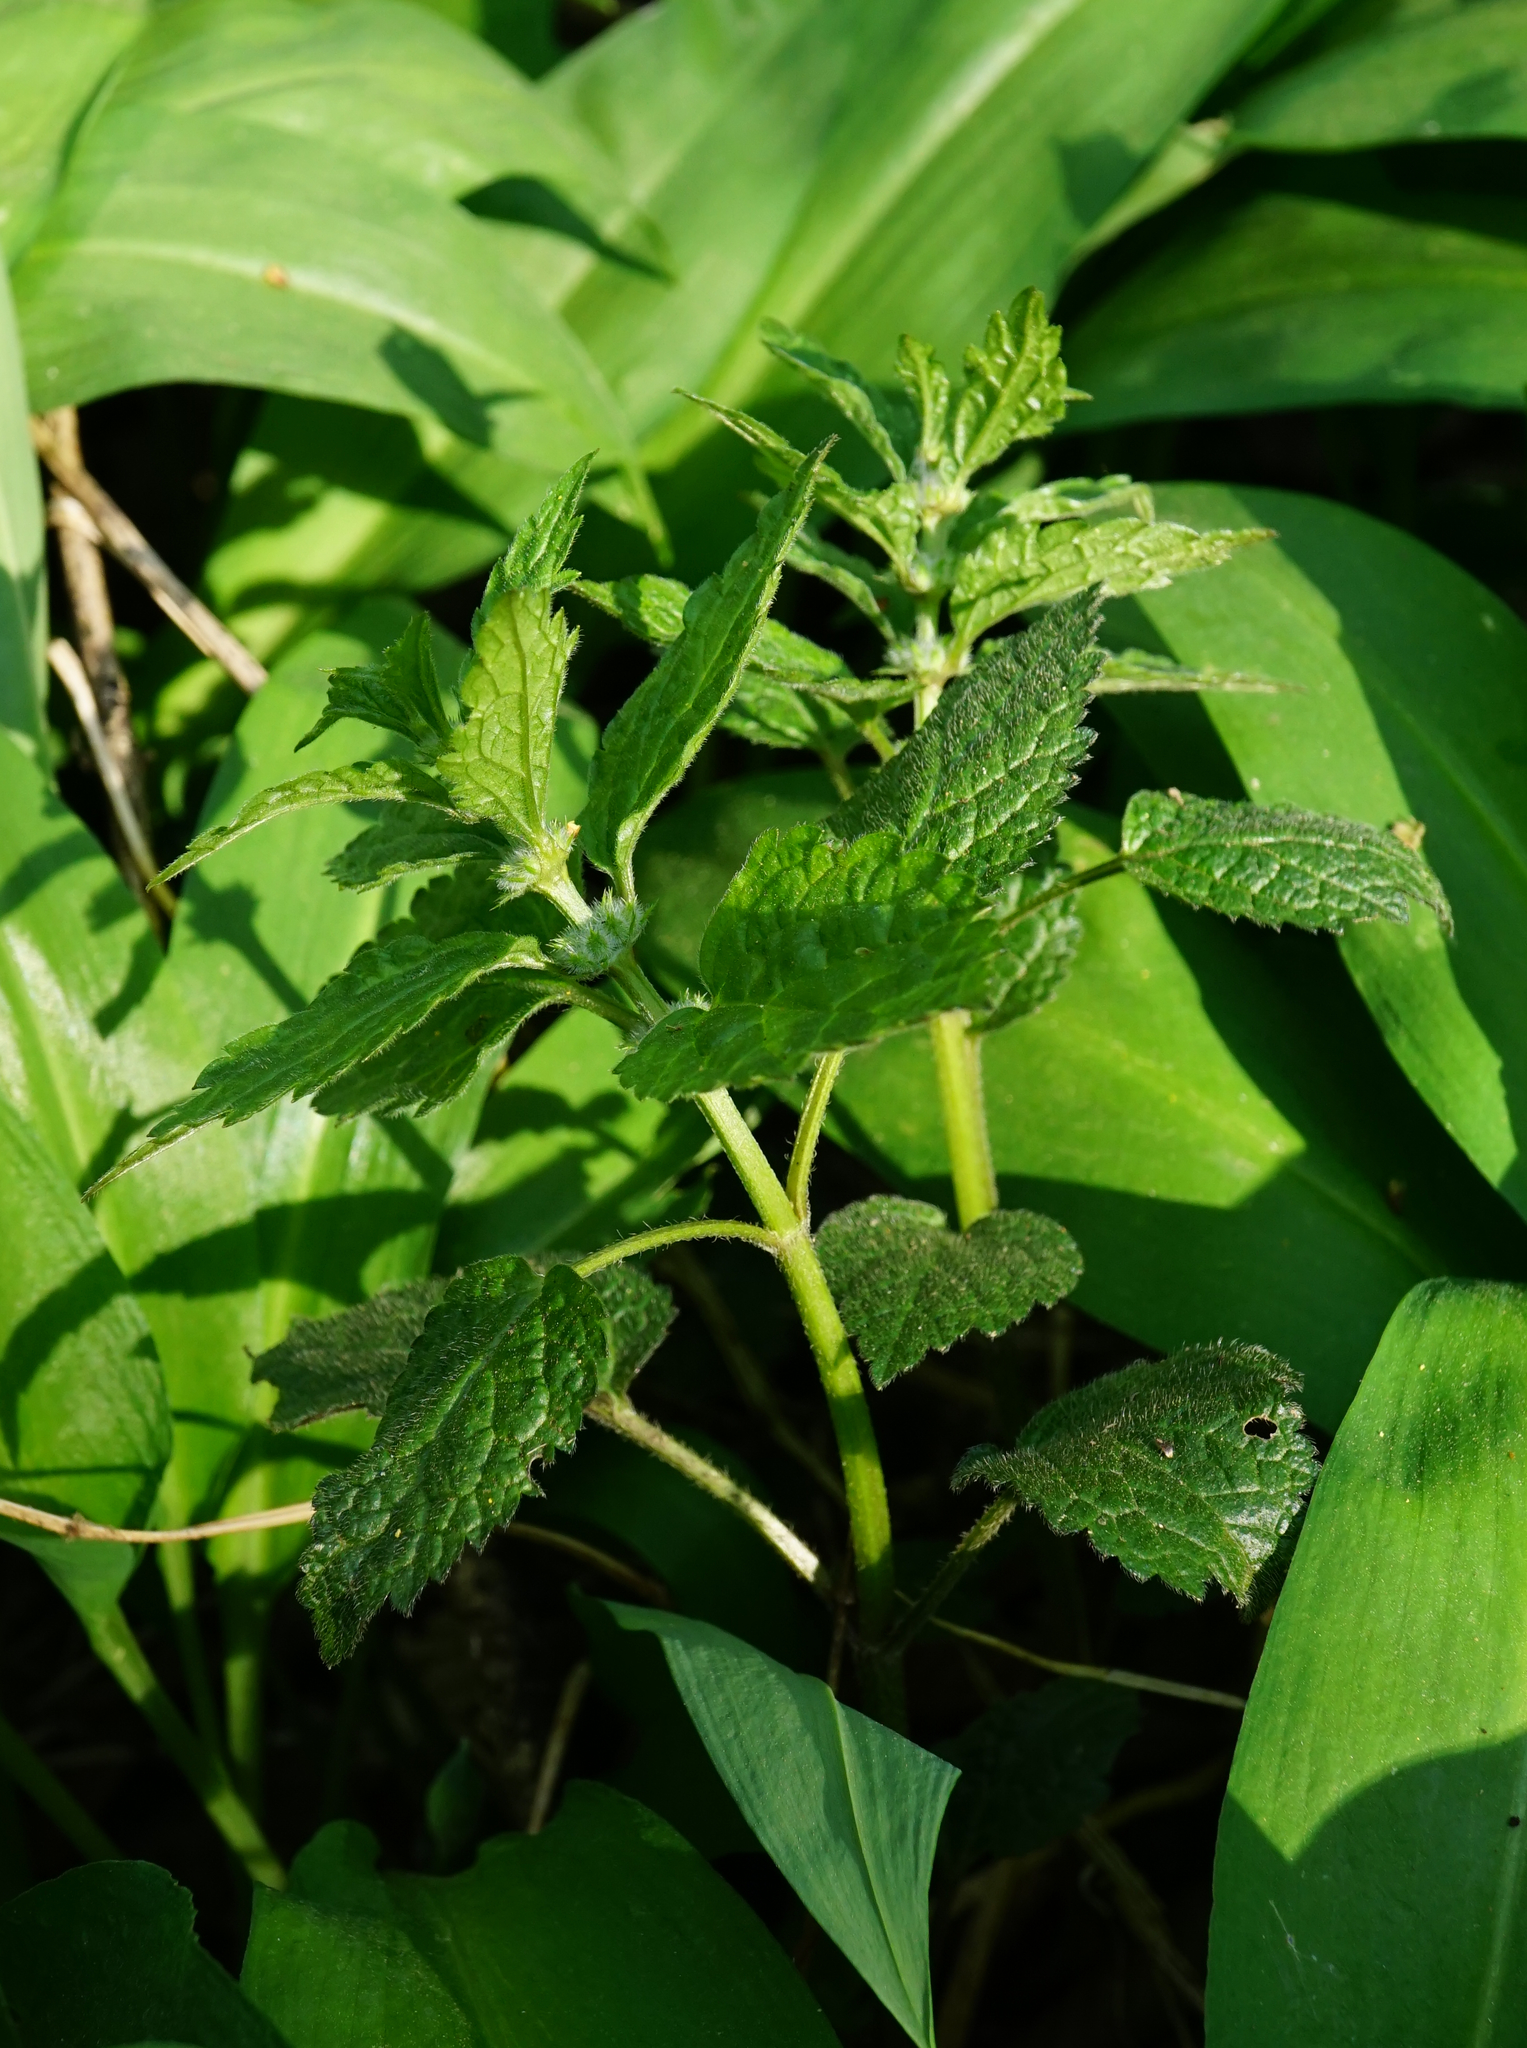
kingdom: Plantae
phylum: Tracheophyta
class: Magnoliopsida
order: Lamiales
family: Lamiaceae
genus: Lamium
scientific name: Lamium galeobdolon
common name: Yellow archangel
